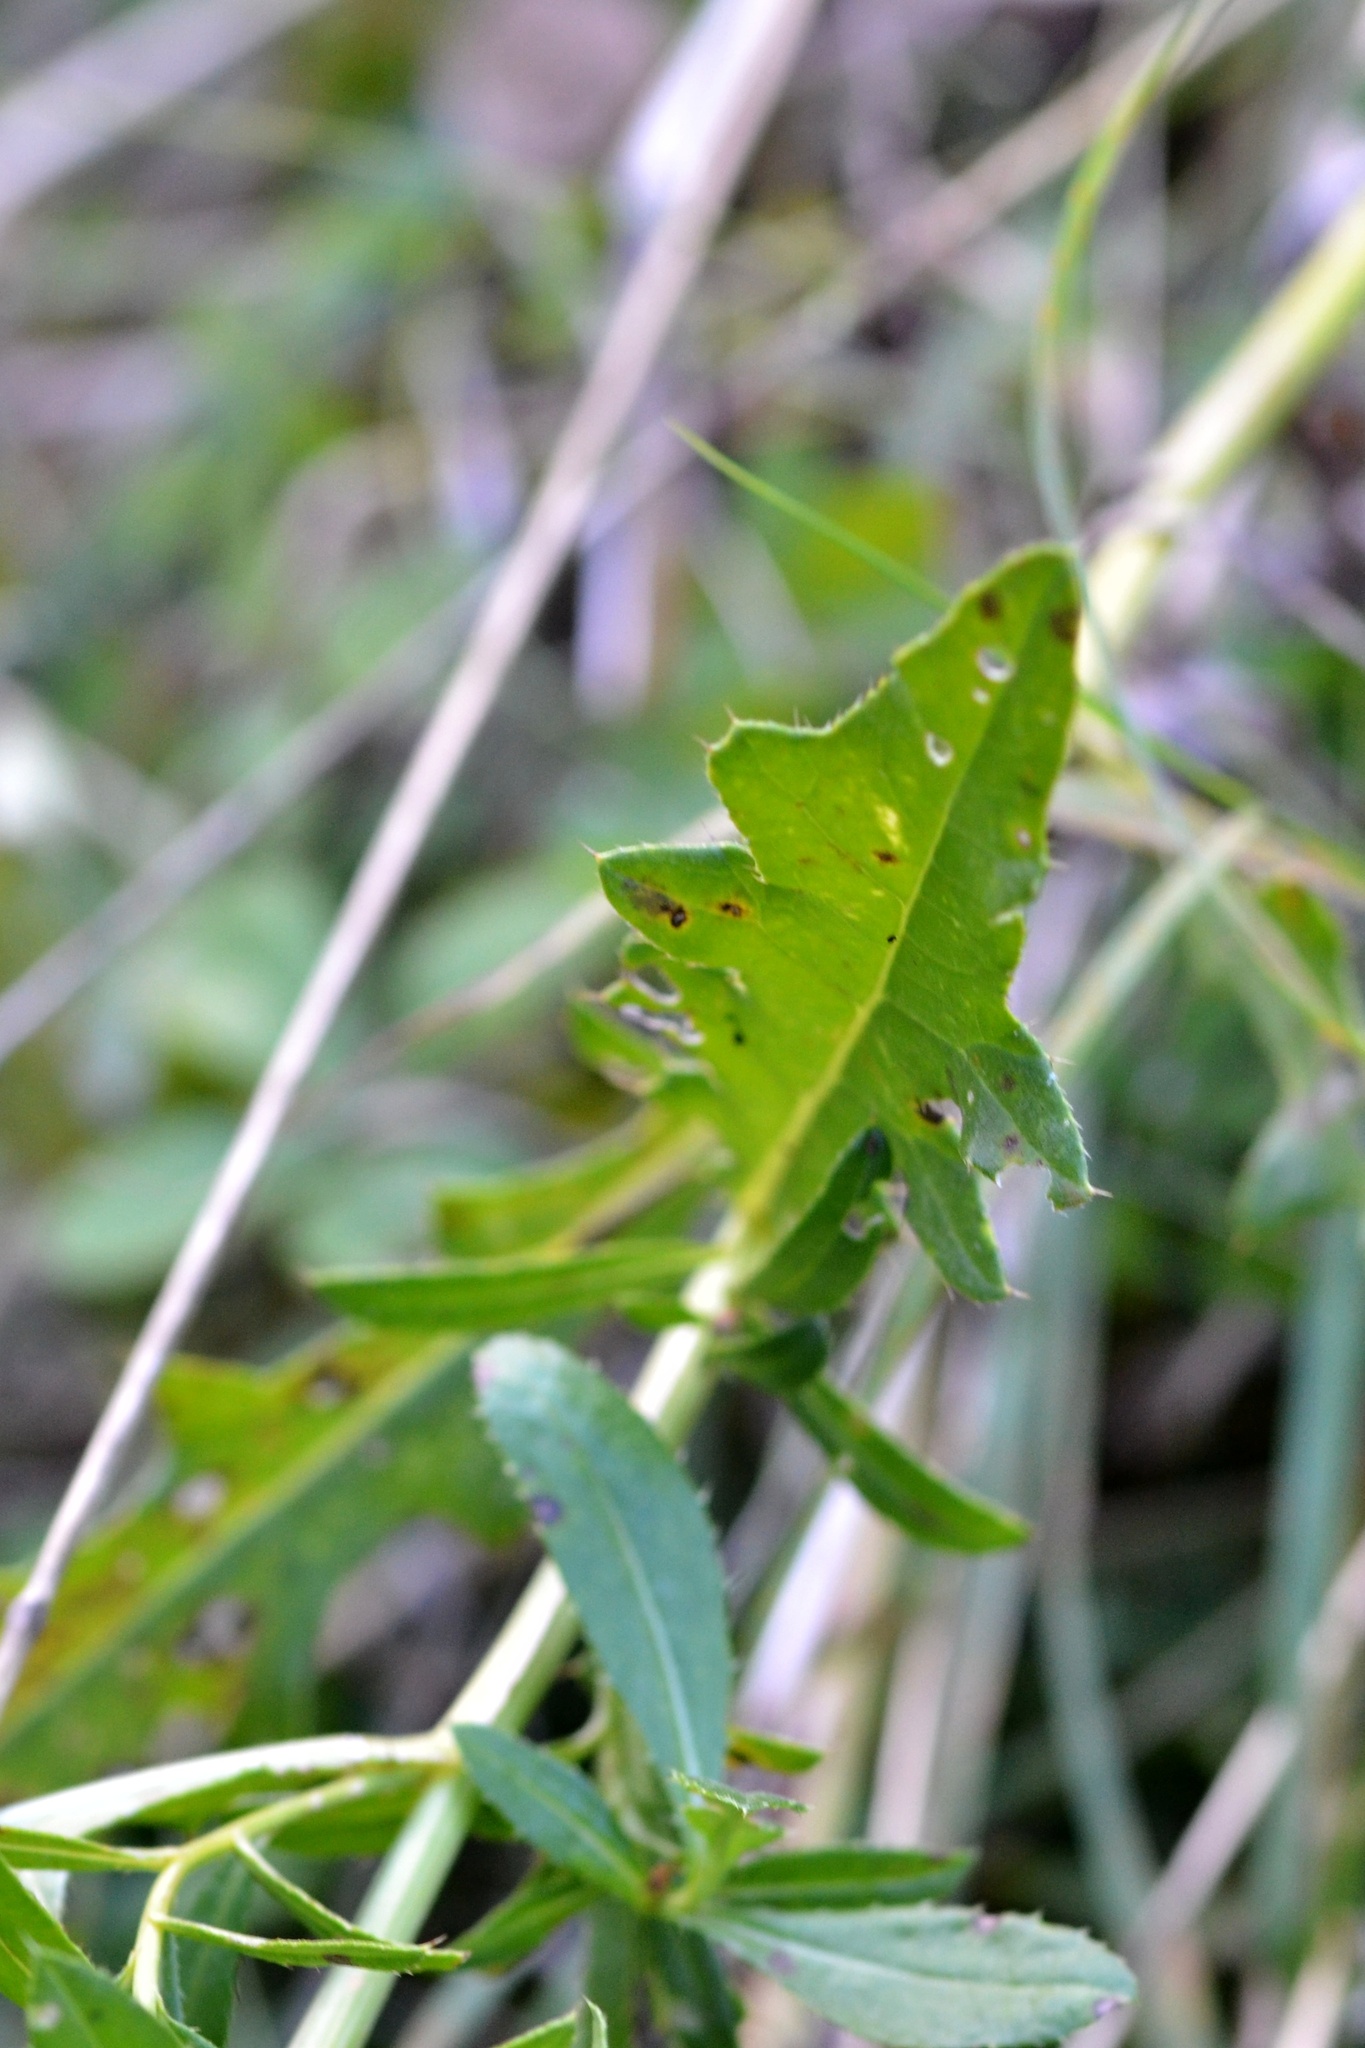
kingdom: Plantae
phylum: Tracheophyta
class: Magnoliopsida
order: Asterales
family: Asteraceae
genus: Crepis
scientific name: Crepis biennis
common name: Rough hawk's-beard
